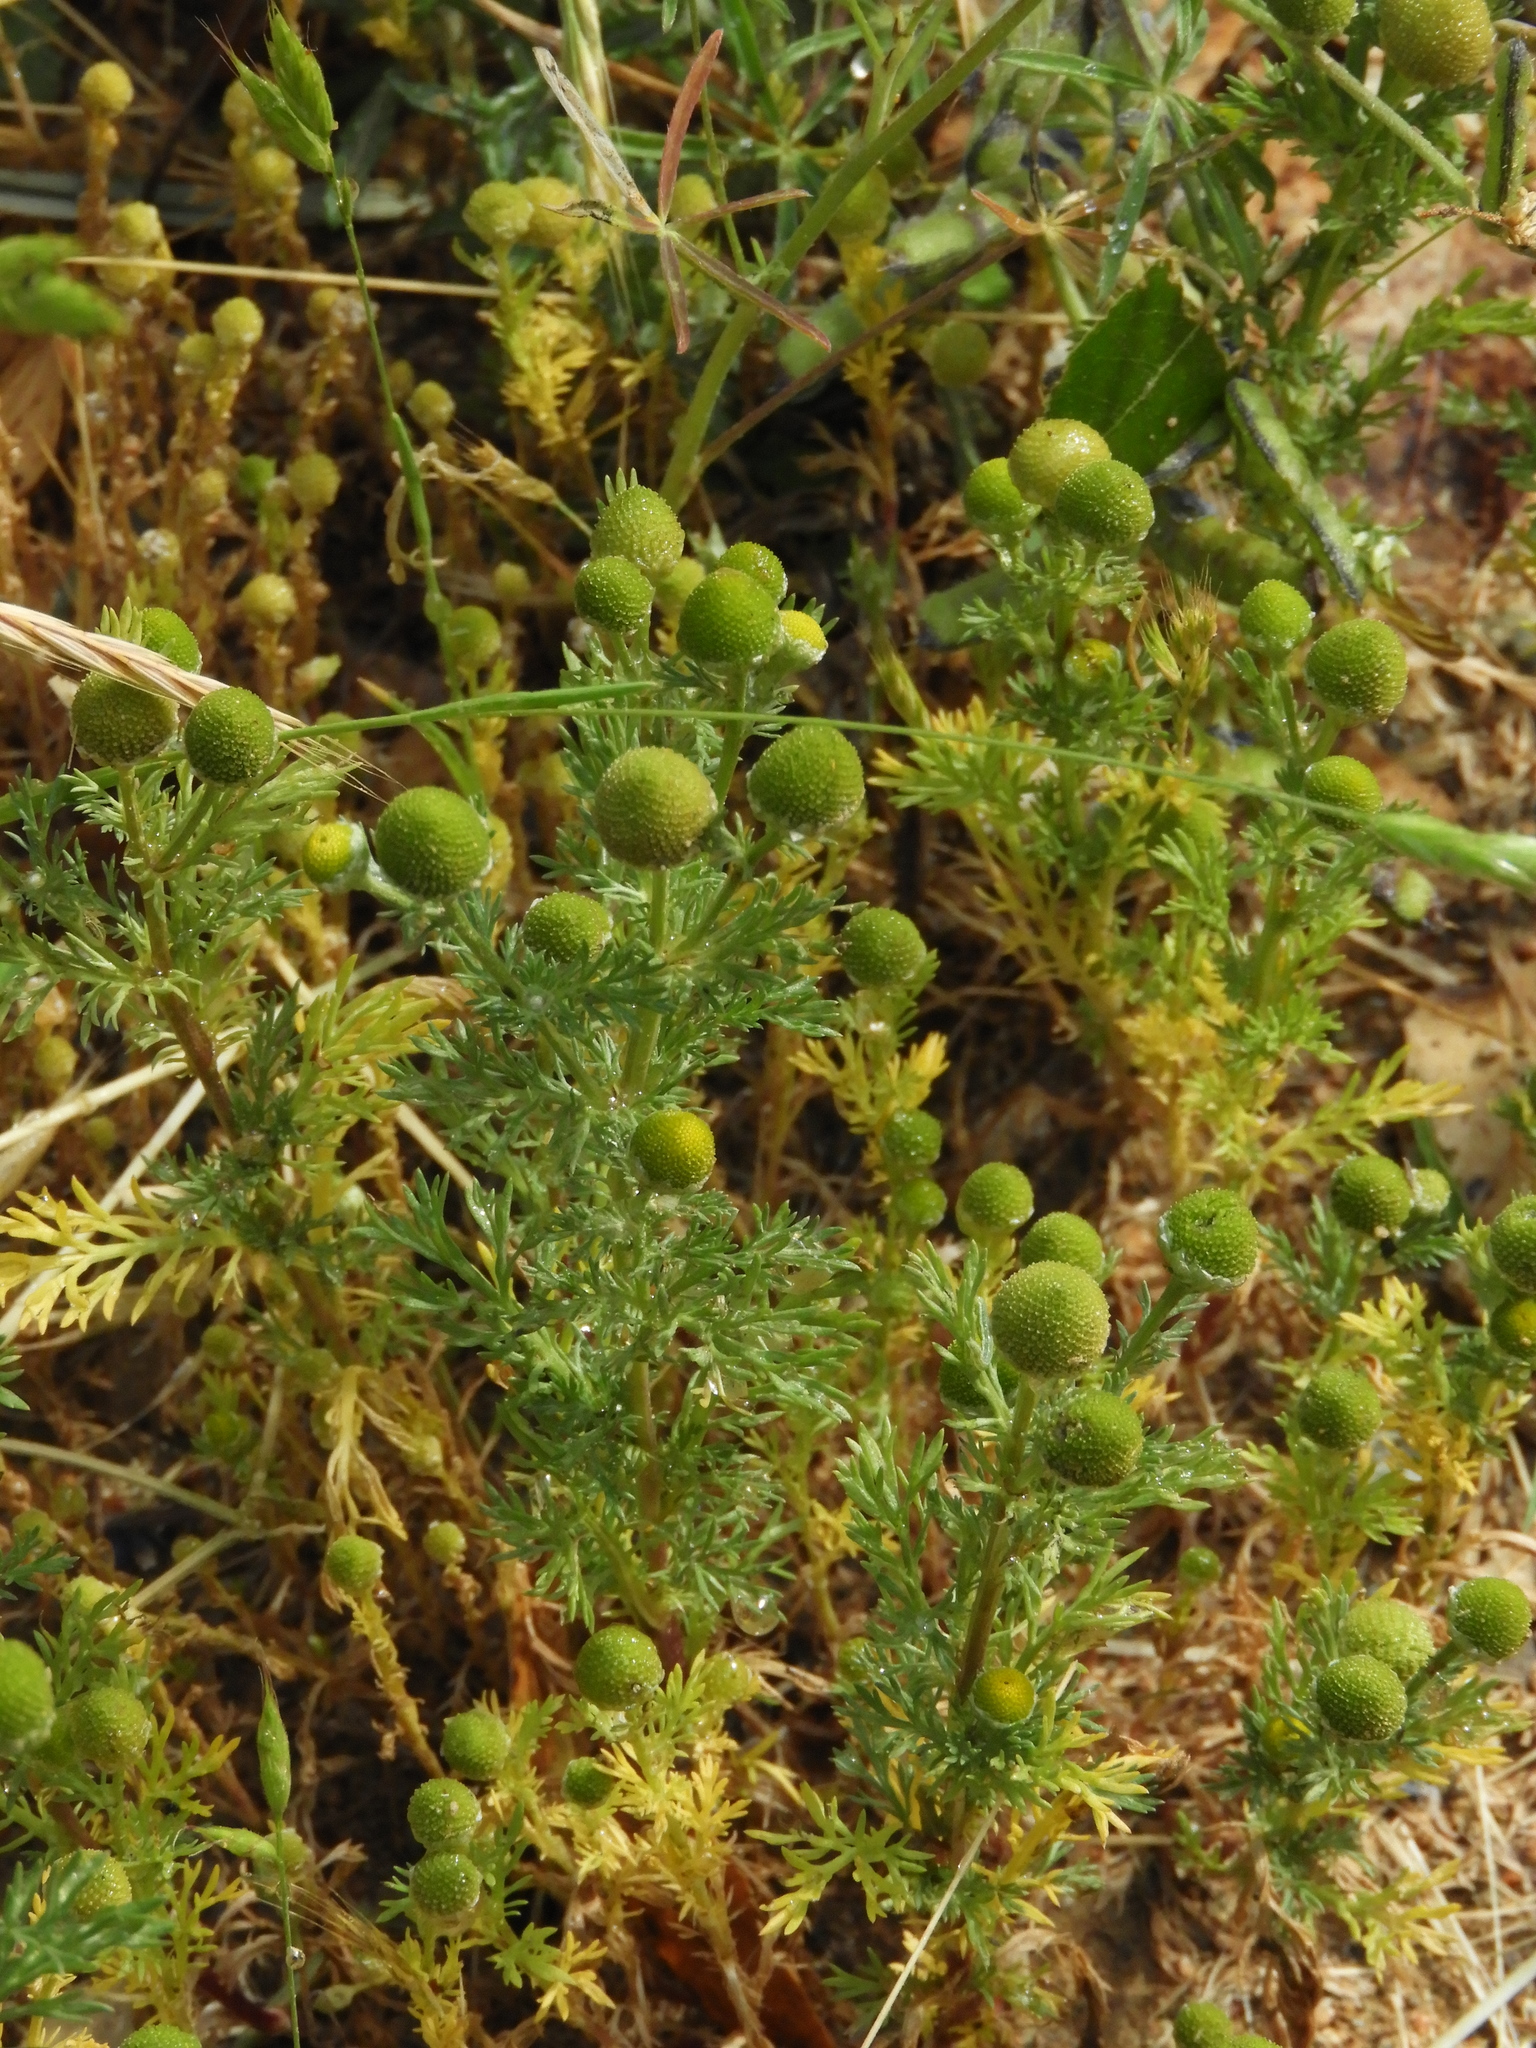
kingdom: Plantae
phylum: Tracheophyta
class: Magnoliopsida
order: Asterales
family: Asteraceae
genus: Matricaria
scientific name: Matricaria discoidea
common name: Disc mayweed
